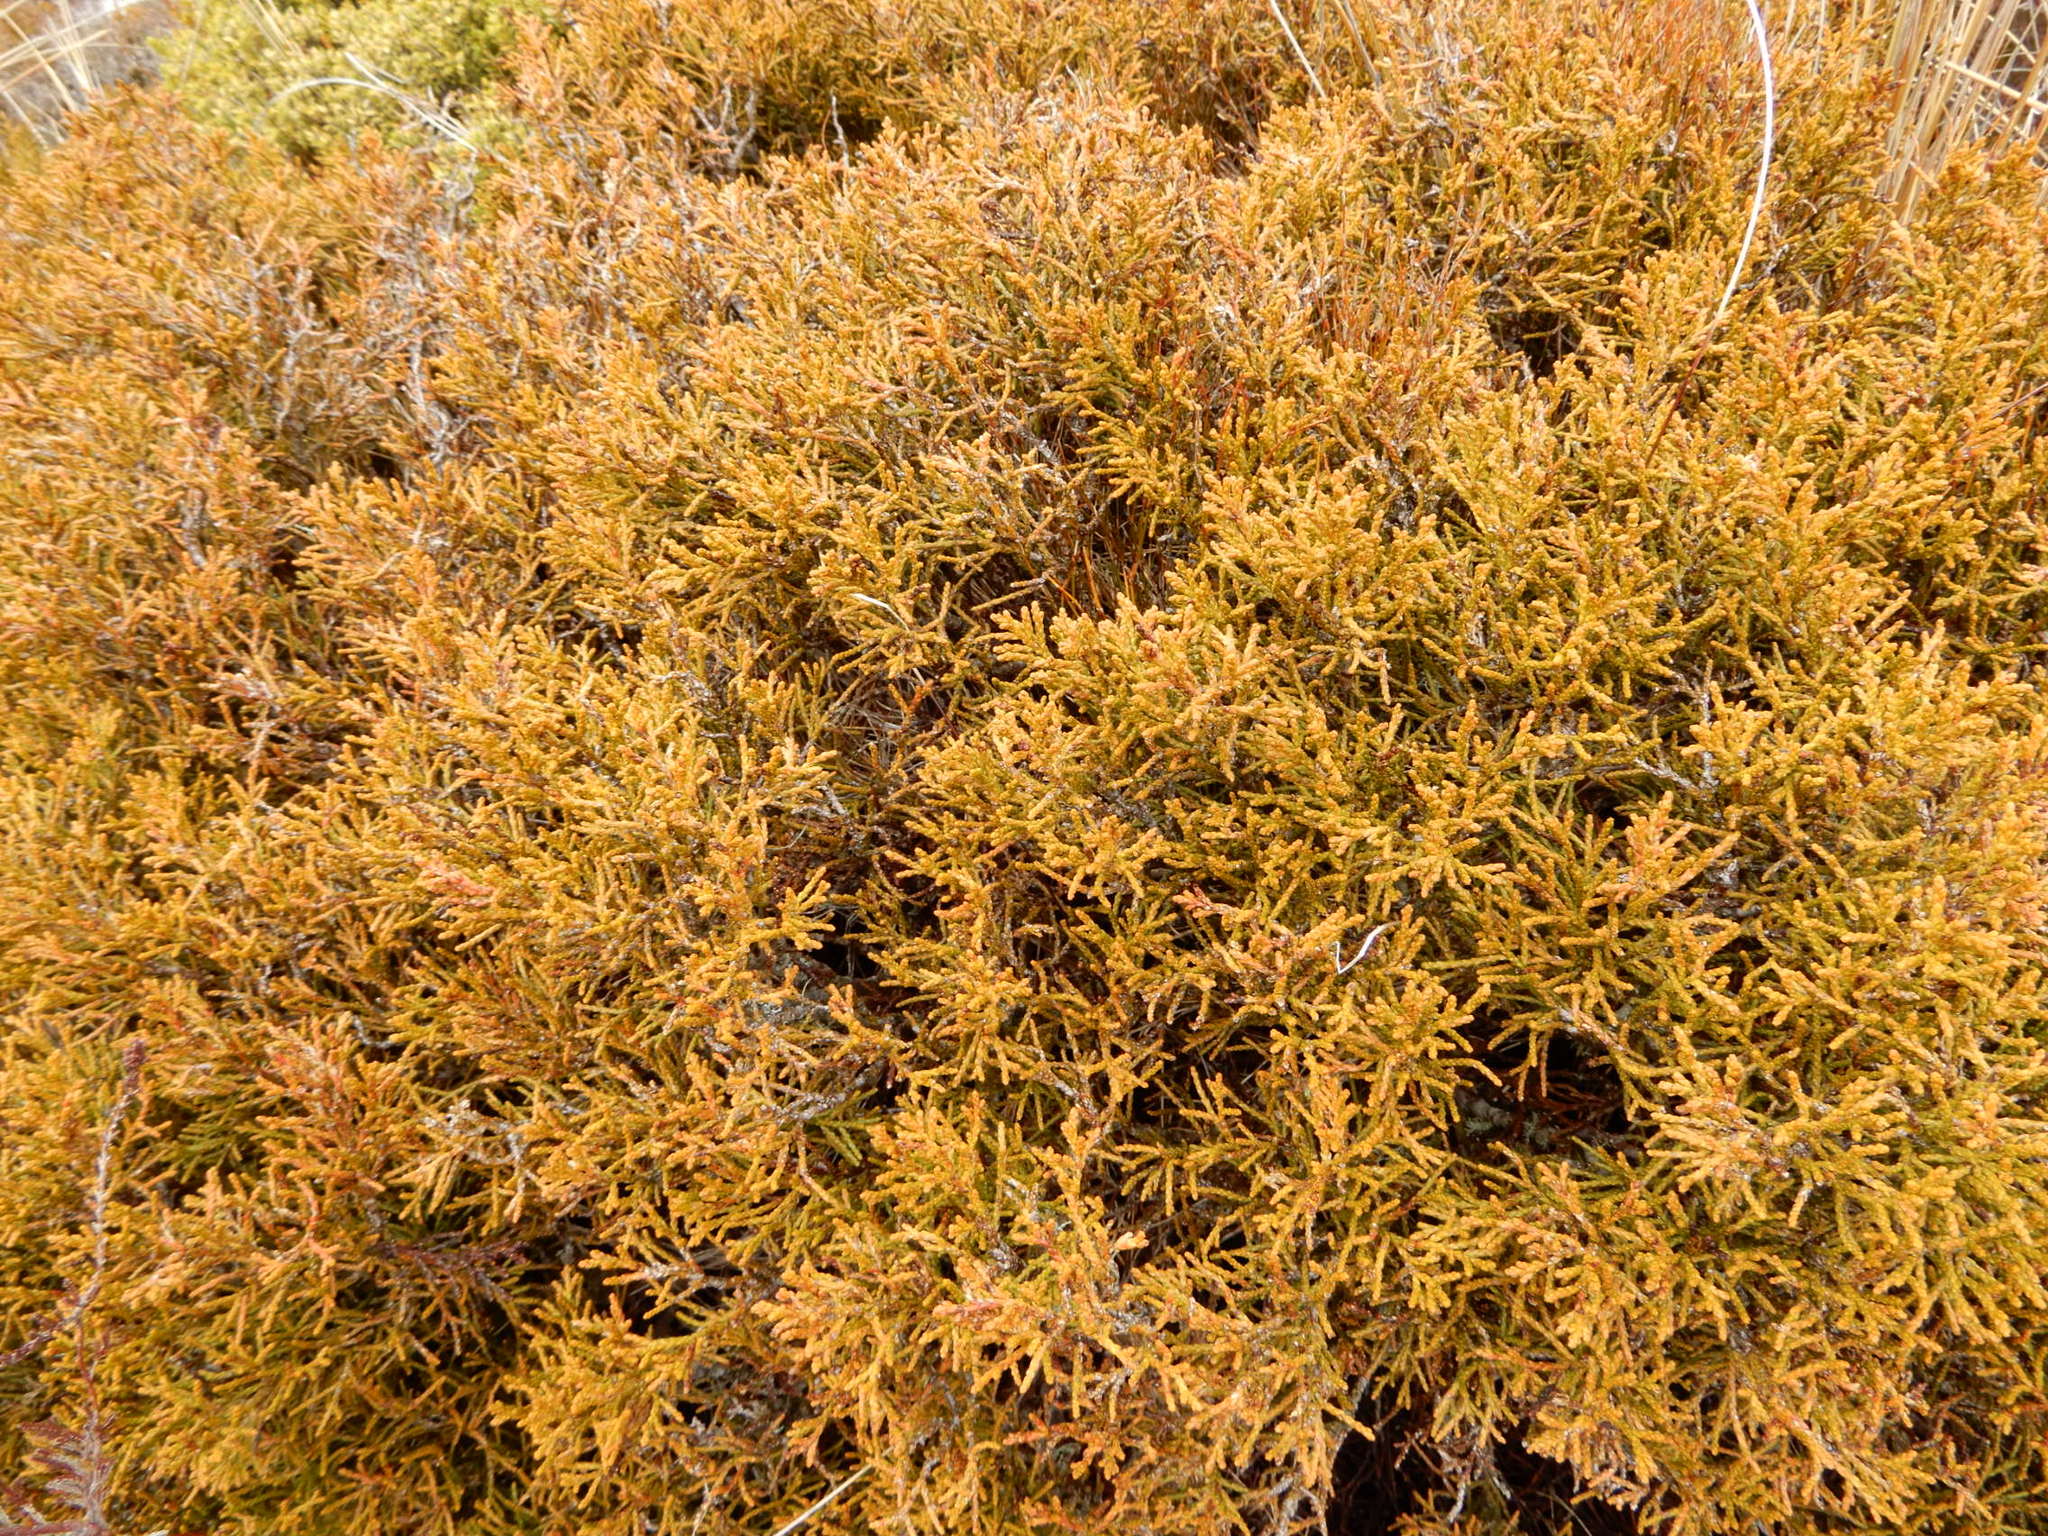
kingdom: Plantae
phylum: Tracheophyta
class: Pinopsida
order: Pinales
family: Podocarpaceae
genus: Halocarpus
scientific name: Halocarpus bidwillii
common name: Bog pine
